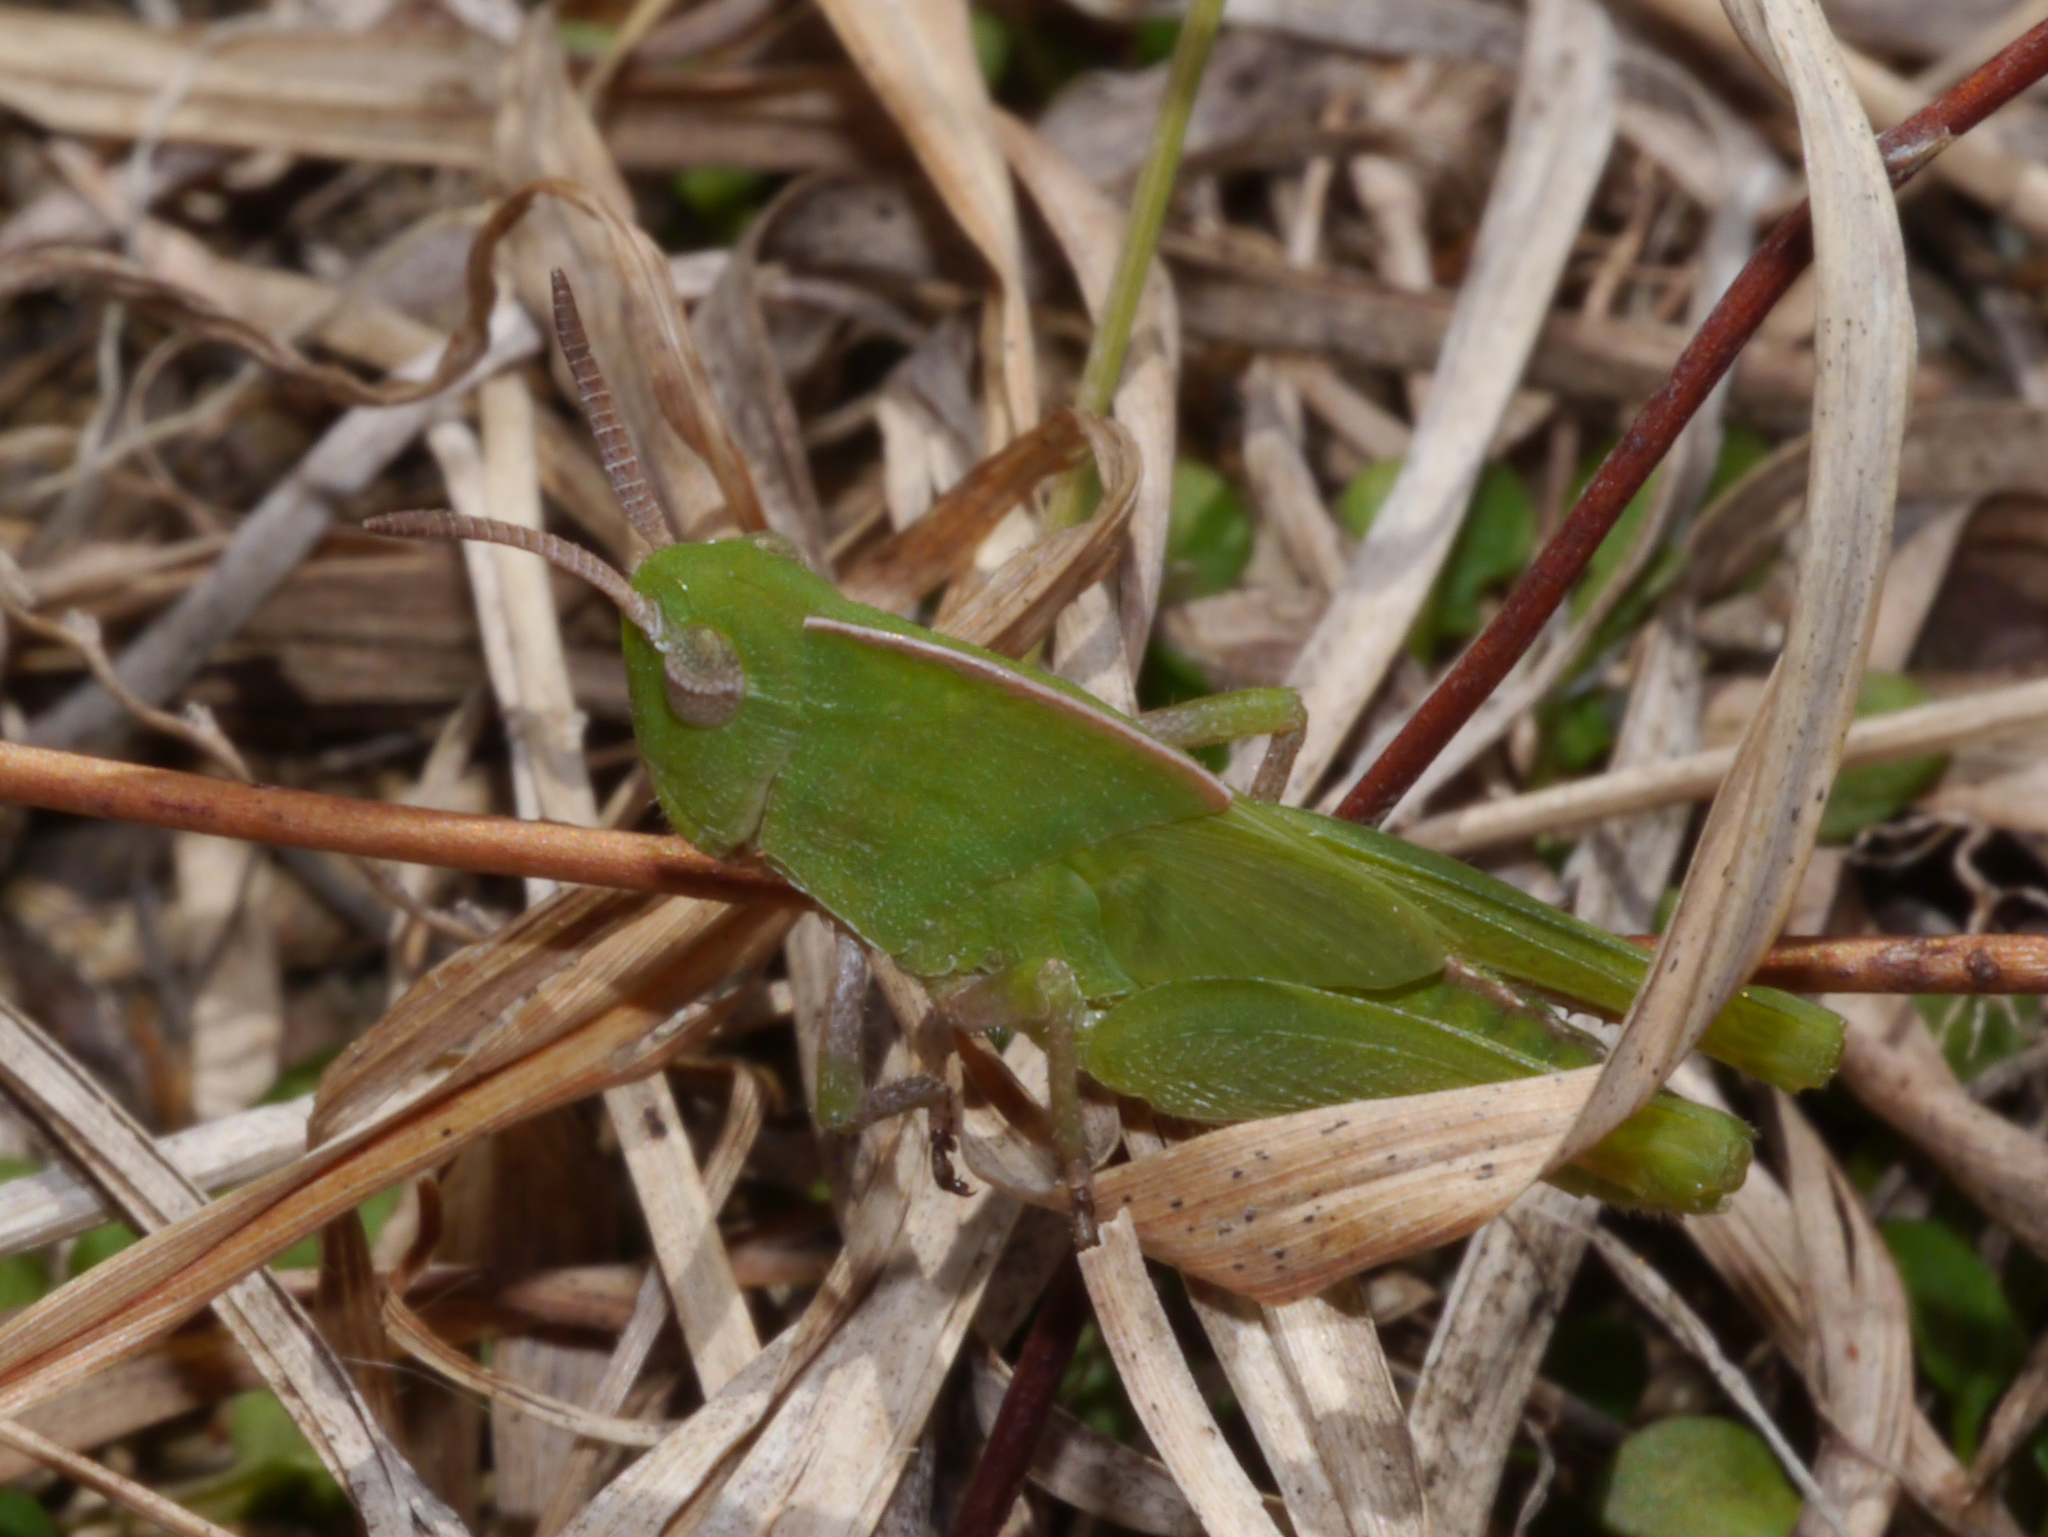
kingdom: Animalia
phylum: Arthropoda
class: Insecta
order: Orthoptera
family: Acrididae
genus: Chortophaga
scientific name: Chortophaga viridifasciata
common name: Green-striped grasshopper
